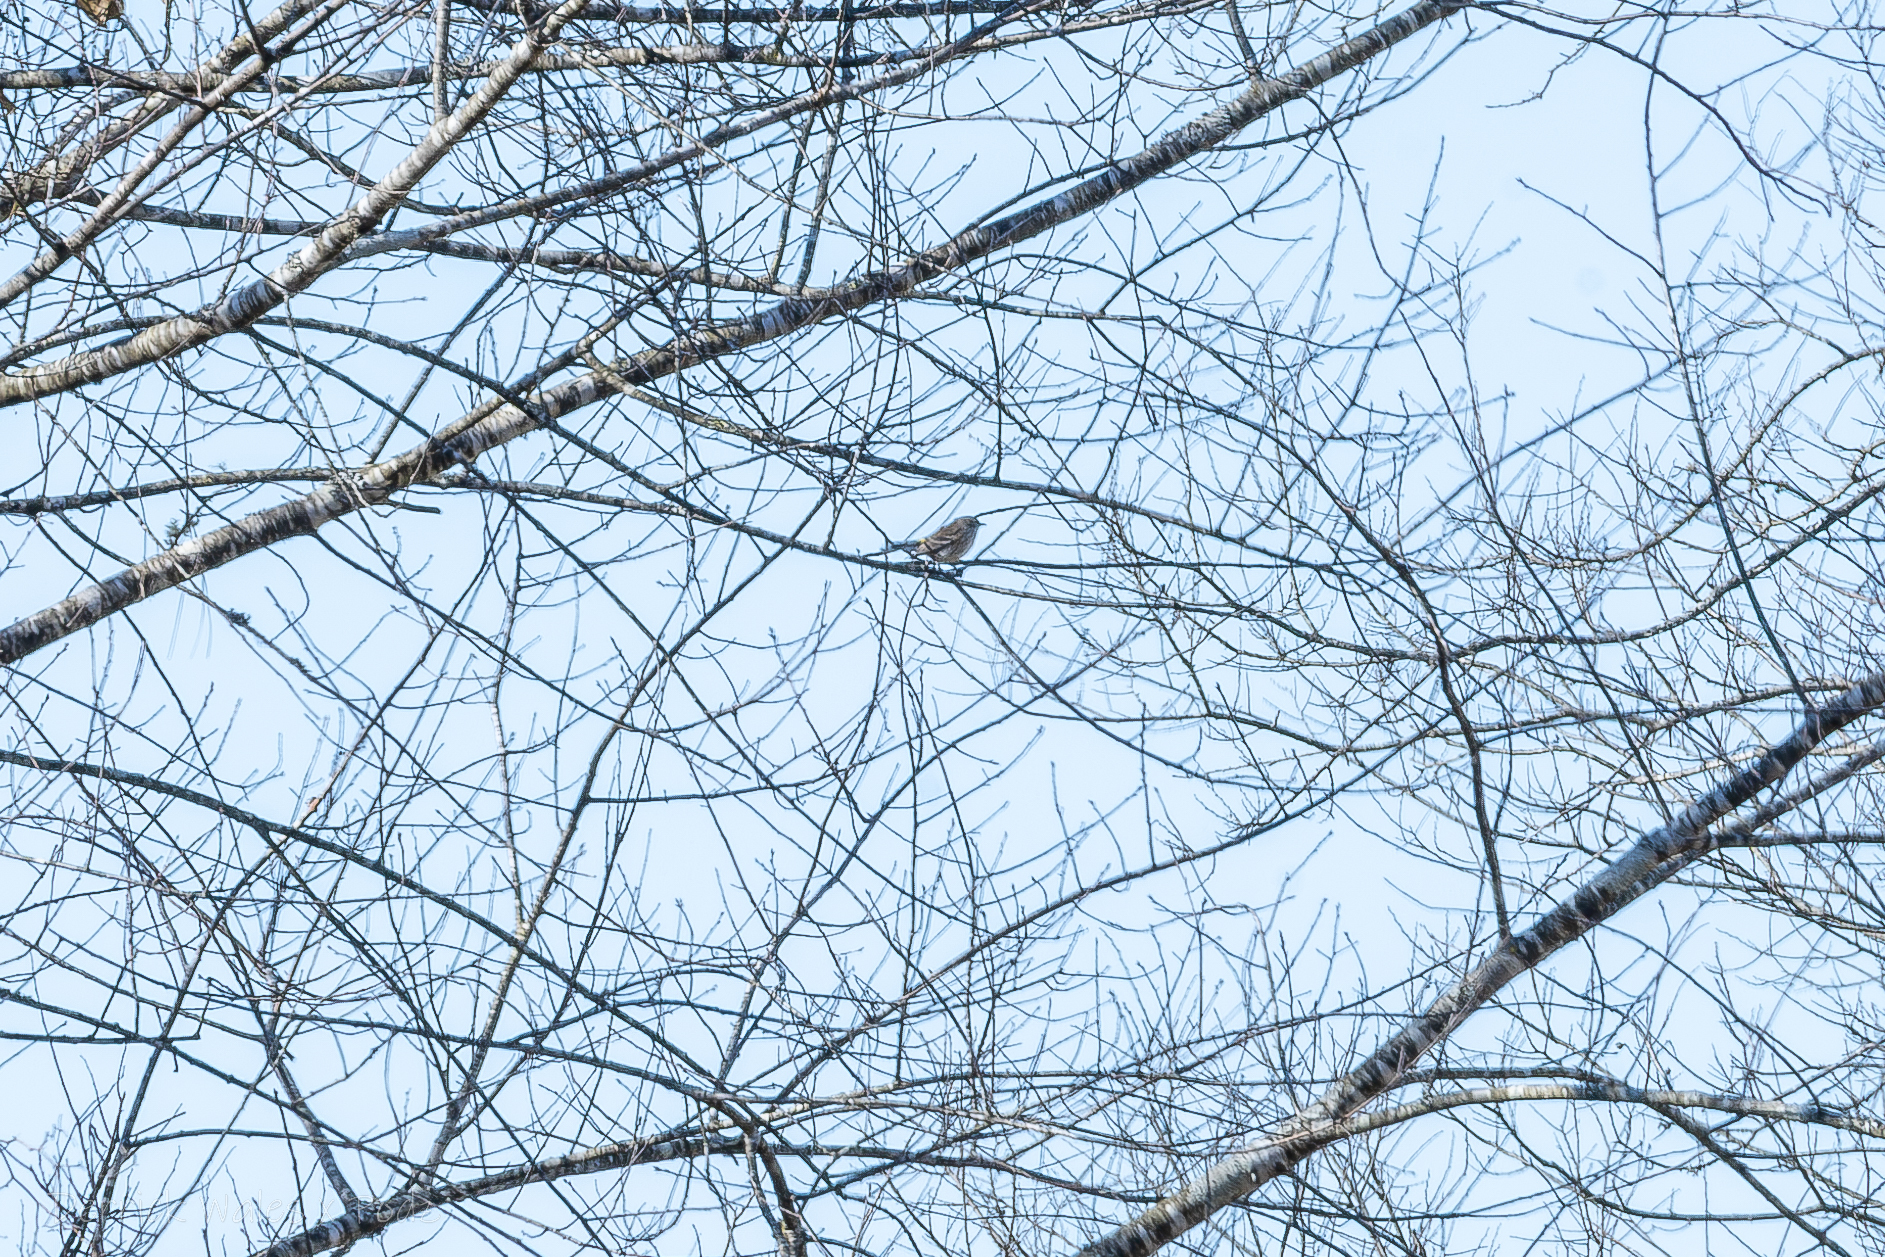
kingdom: Animalia
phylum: Chordata
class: Aves
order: Passeriformes
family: Parulidae
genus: Setophaga
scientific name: Setophaga coronata
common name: Myrtle warbler
